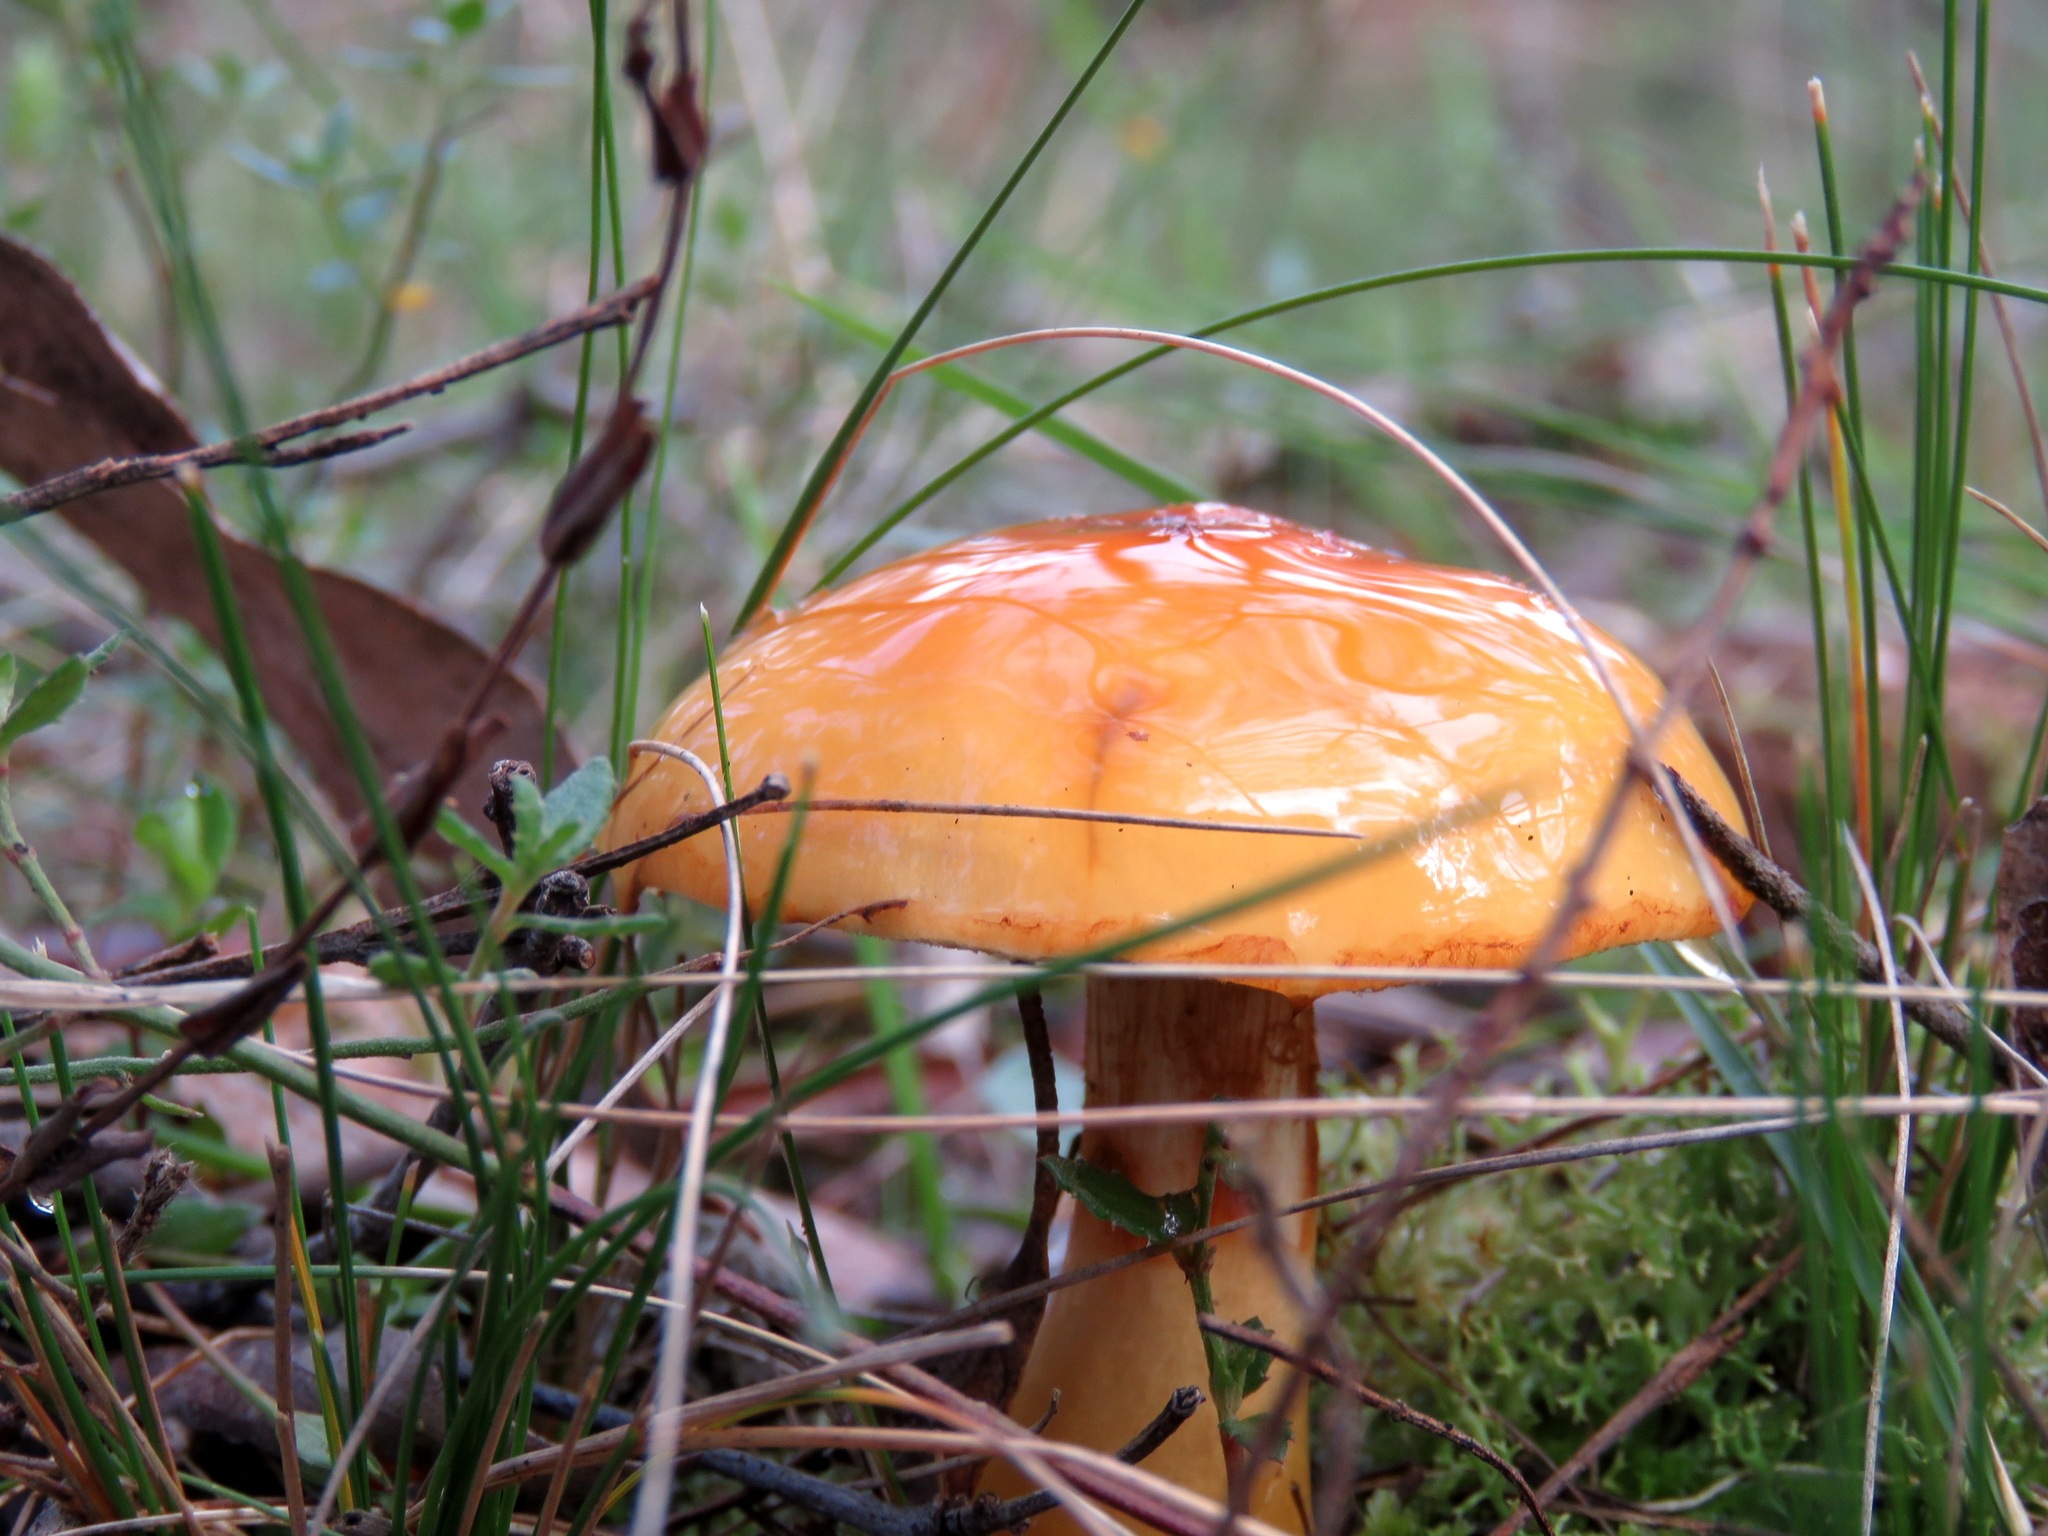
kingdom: Fungi
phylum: Basidiomycota
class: Agaricomycetes
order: Agaricales
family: Cortinariaceae
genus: Cortinarius
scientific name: Cortinarius sinapicolor
